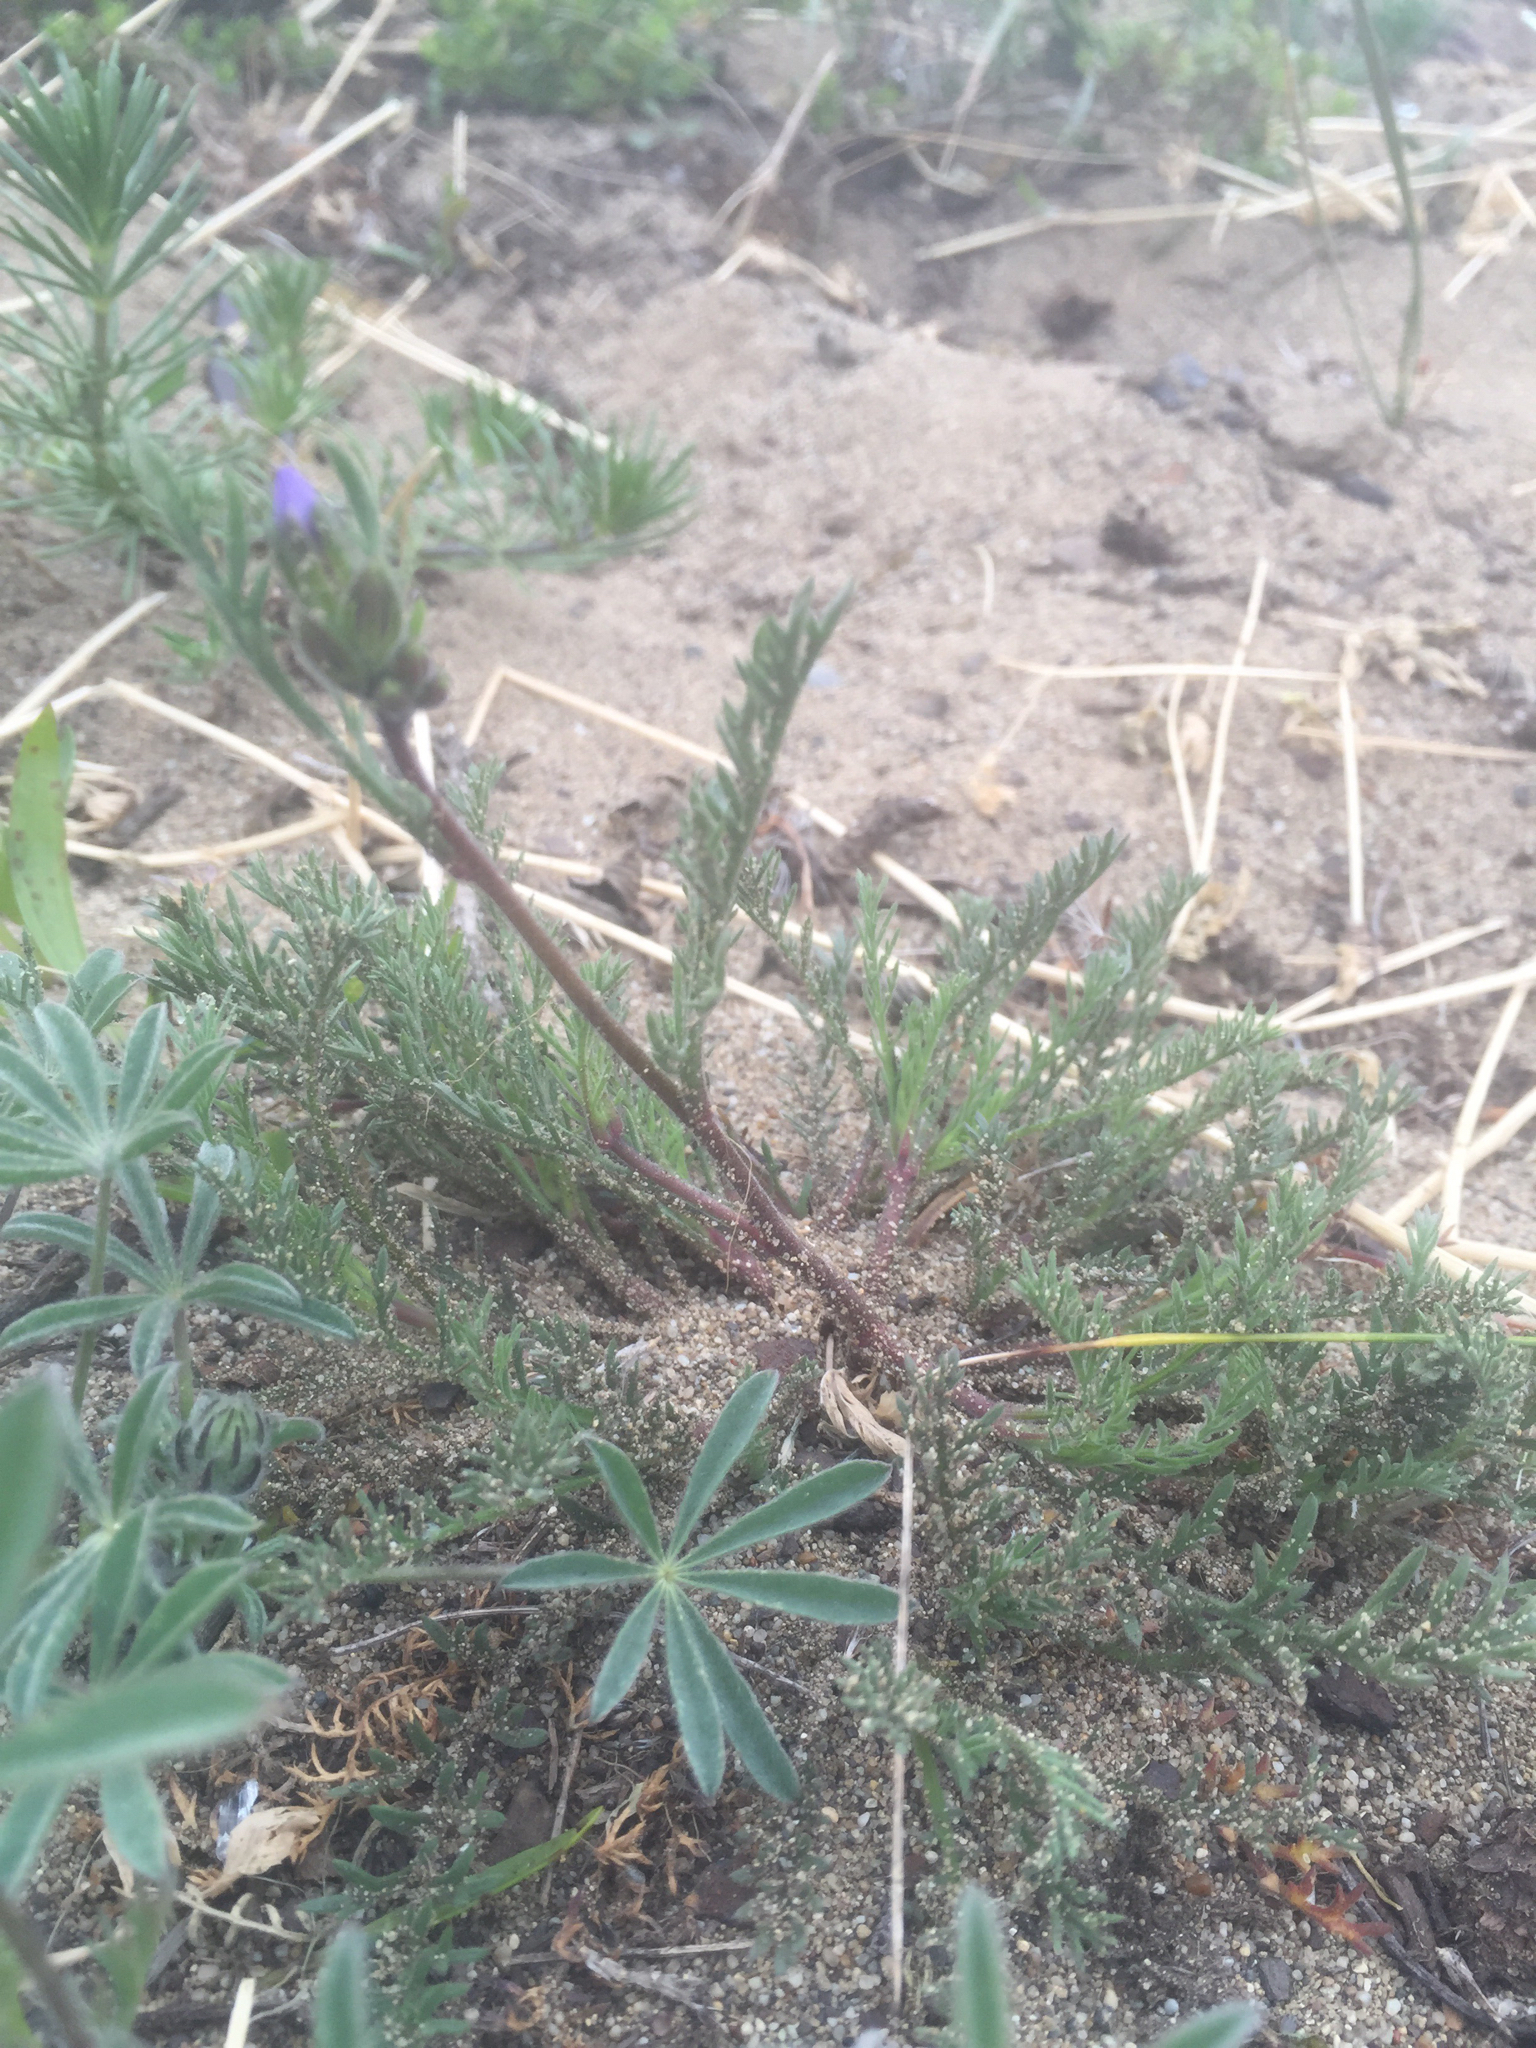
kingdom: Plantae
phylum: Tracheophyta
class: Magnoliopsida
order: Ericales
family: Polemoniaceae
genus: Gilia
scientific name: Gilia millefoliata
